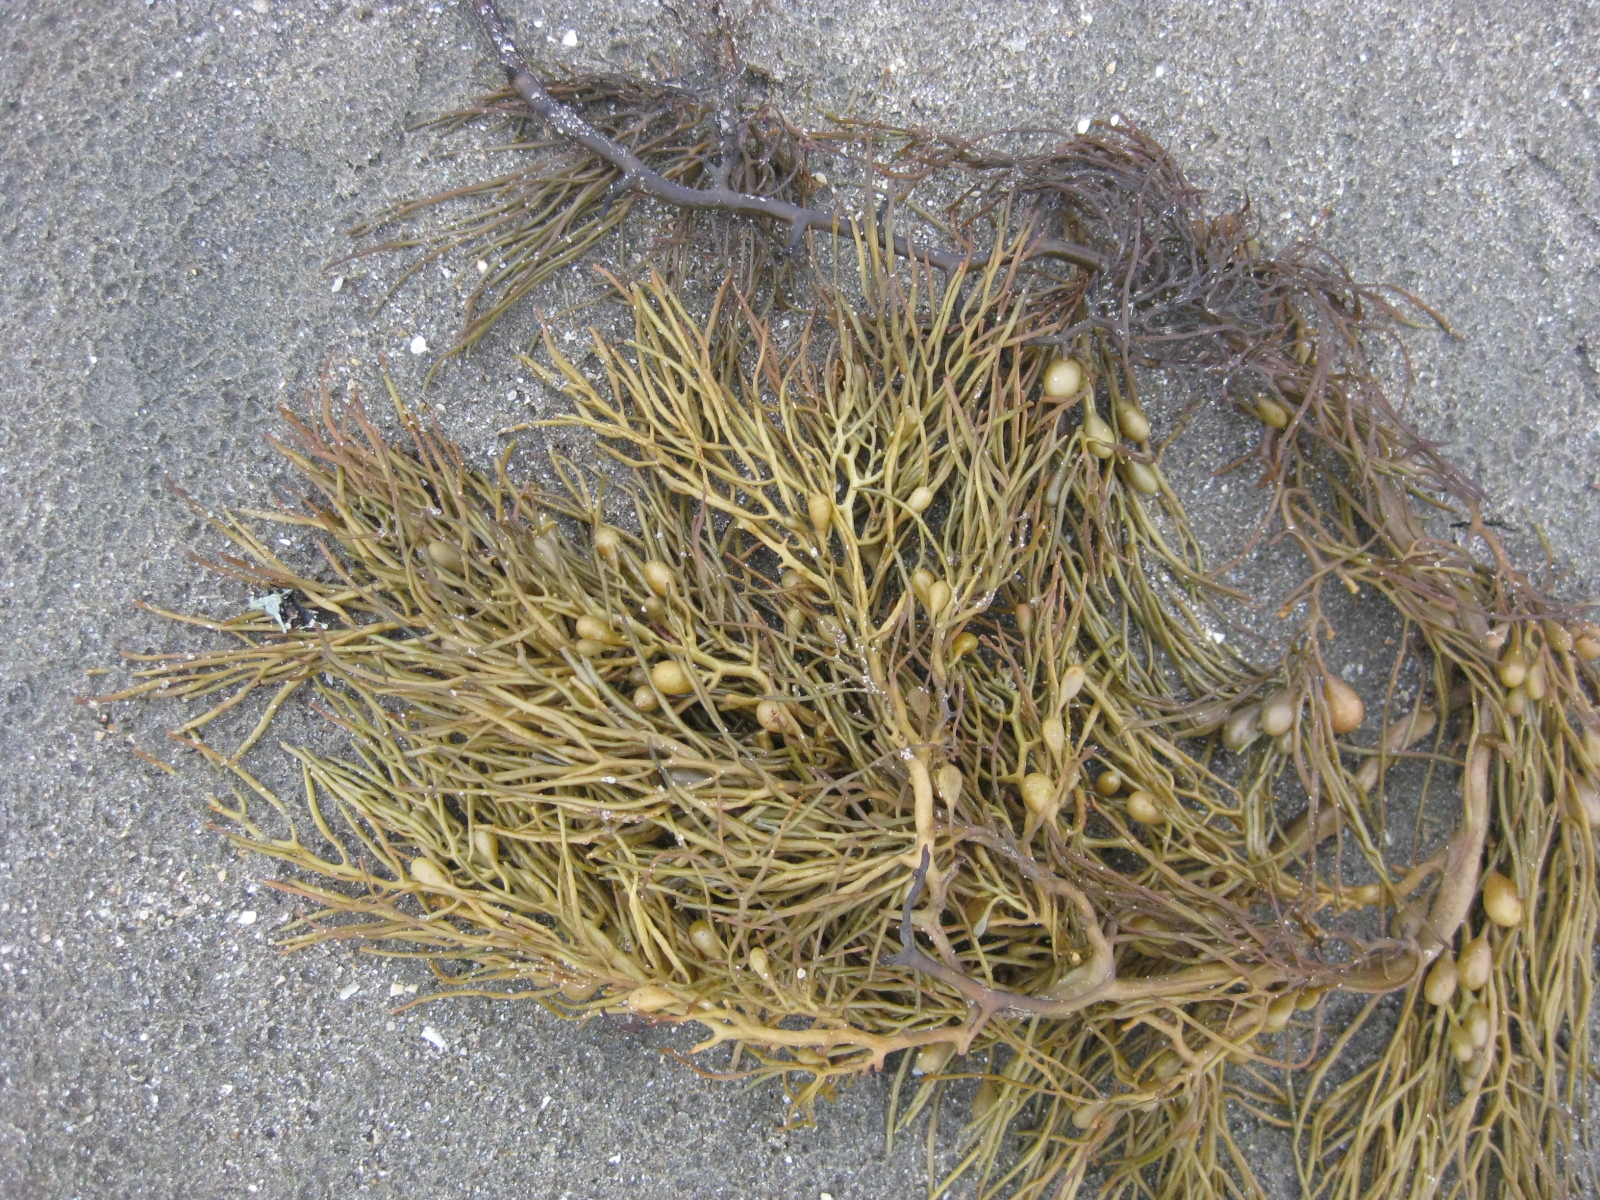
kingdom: Chromista
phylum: Ochrophyta
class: Phaeophyceae
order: Fucales
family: Sargassaceae
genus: Cystophora
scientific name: Cystophora retroflexa
